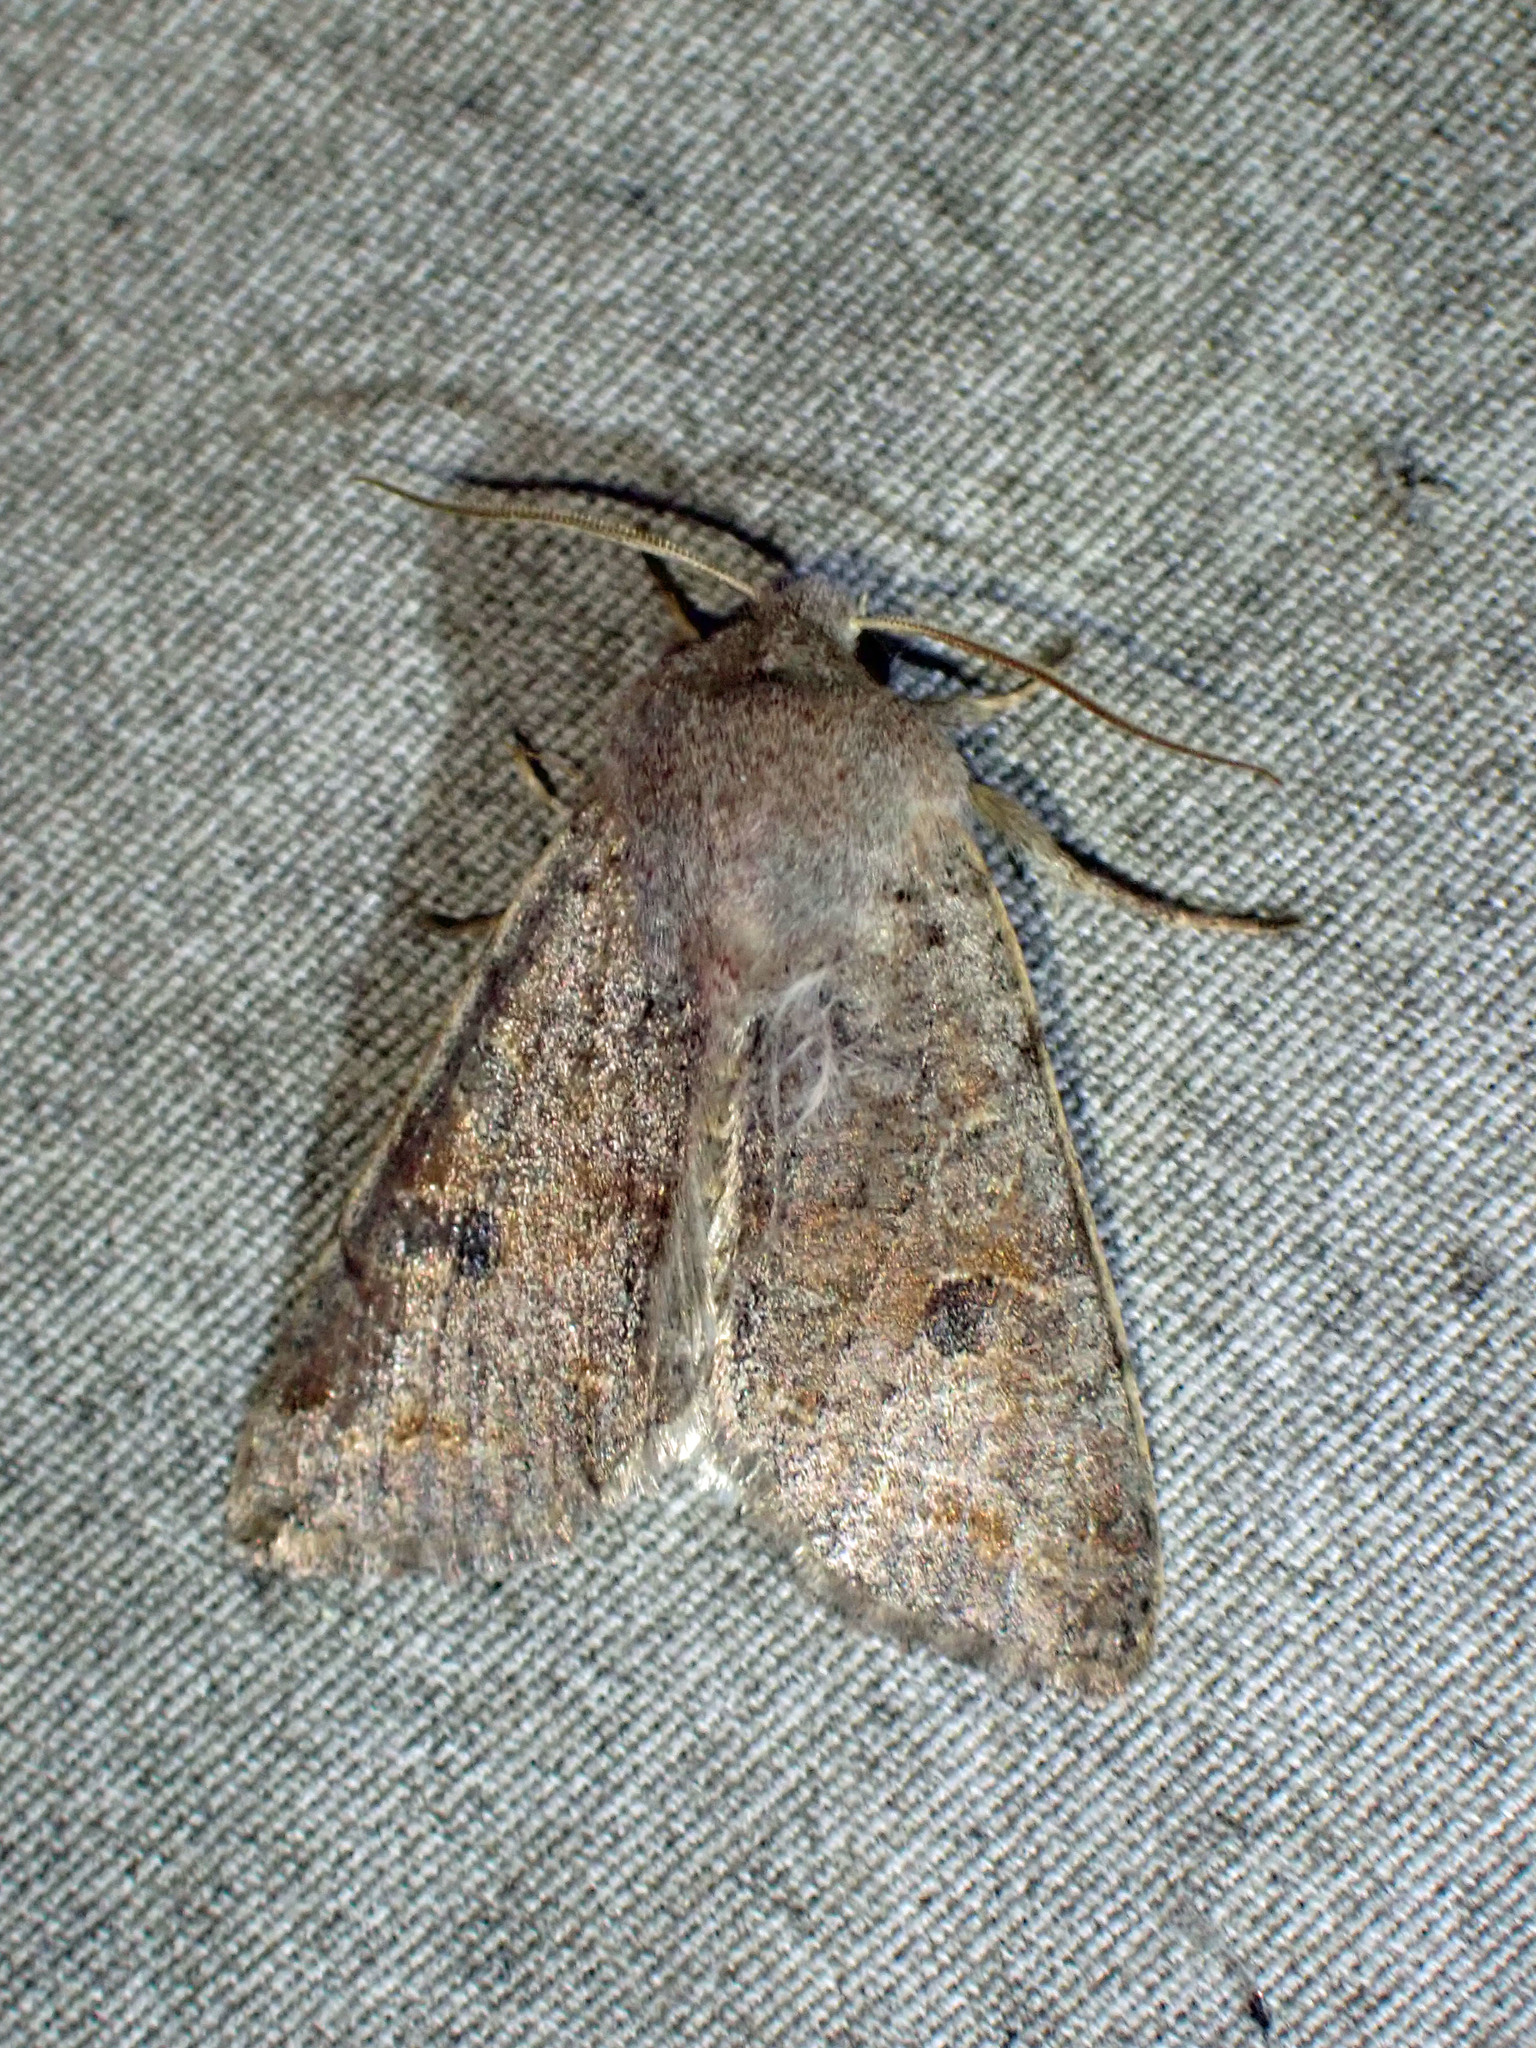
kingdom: Animalia
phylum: Arthropoda
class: Insecta
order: Lepidoptera
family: Noctuidae
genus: Orthosia
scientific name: Orthosia hibisci
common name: Green fruitworm
